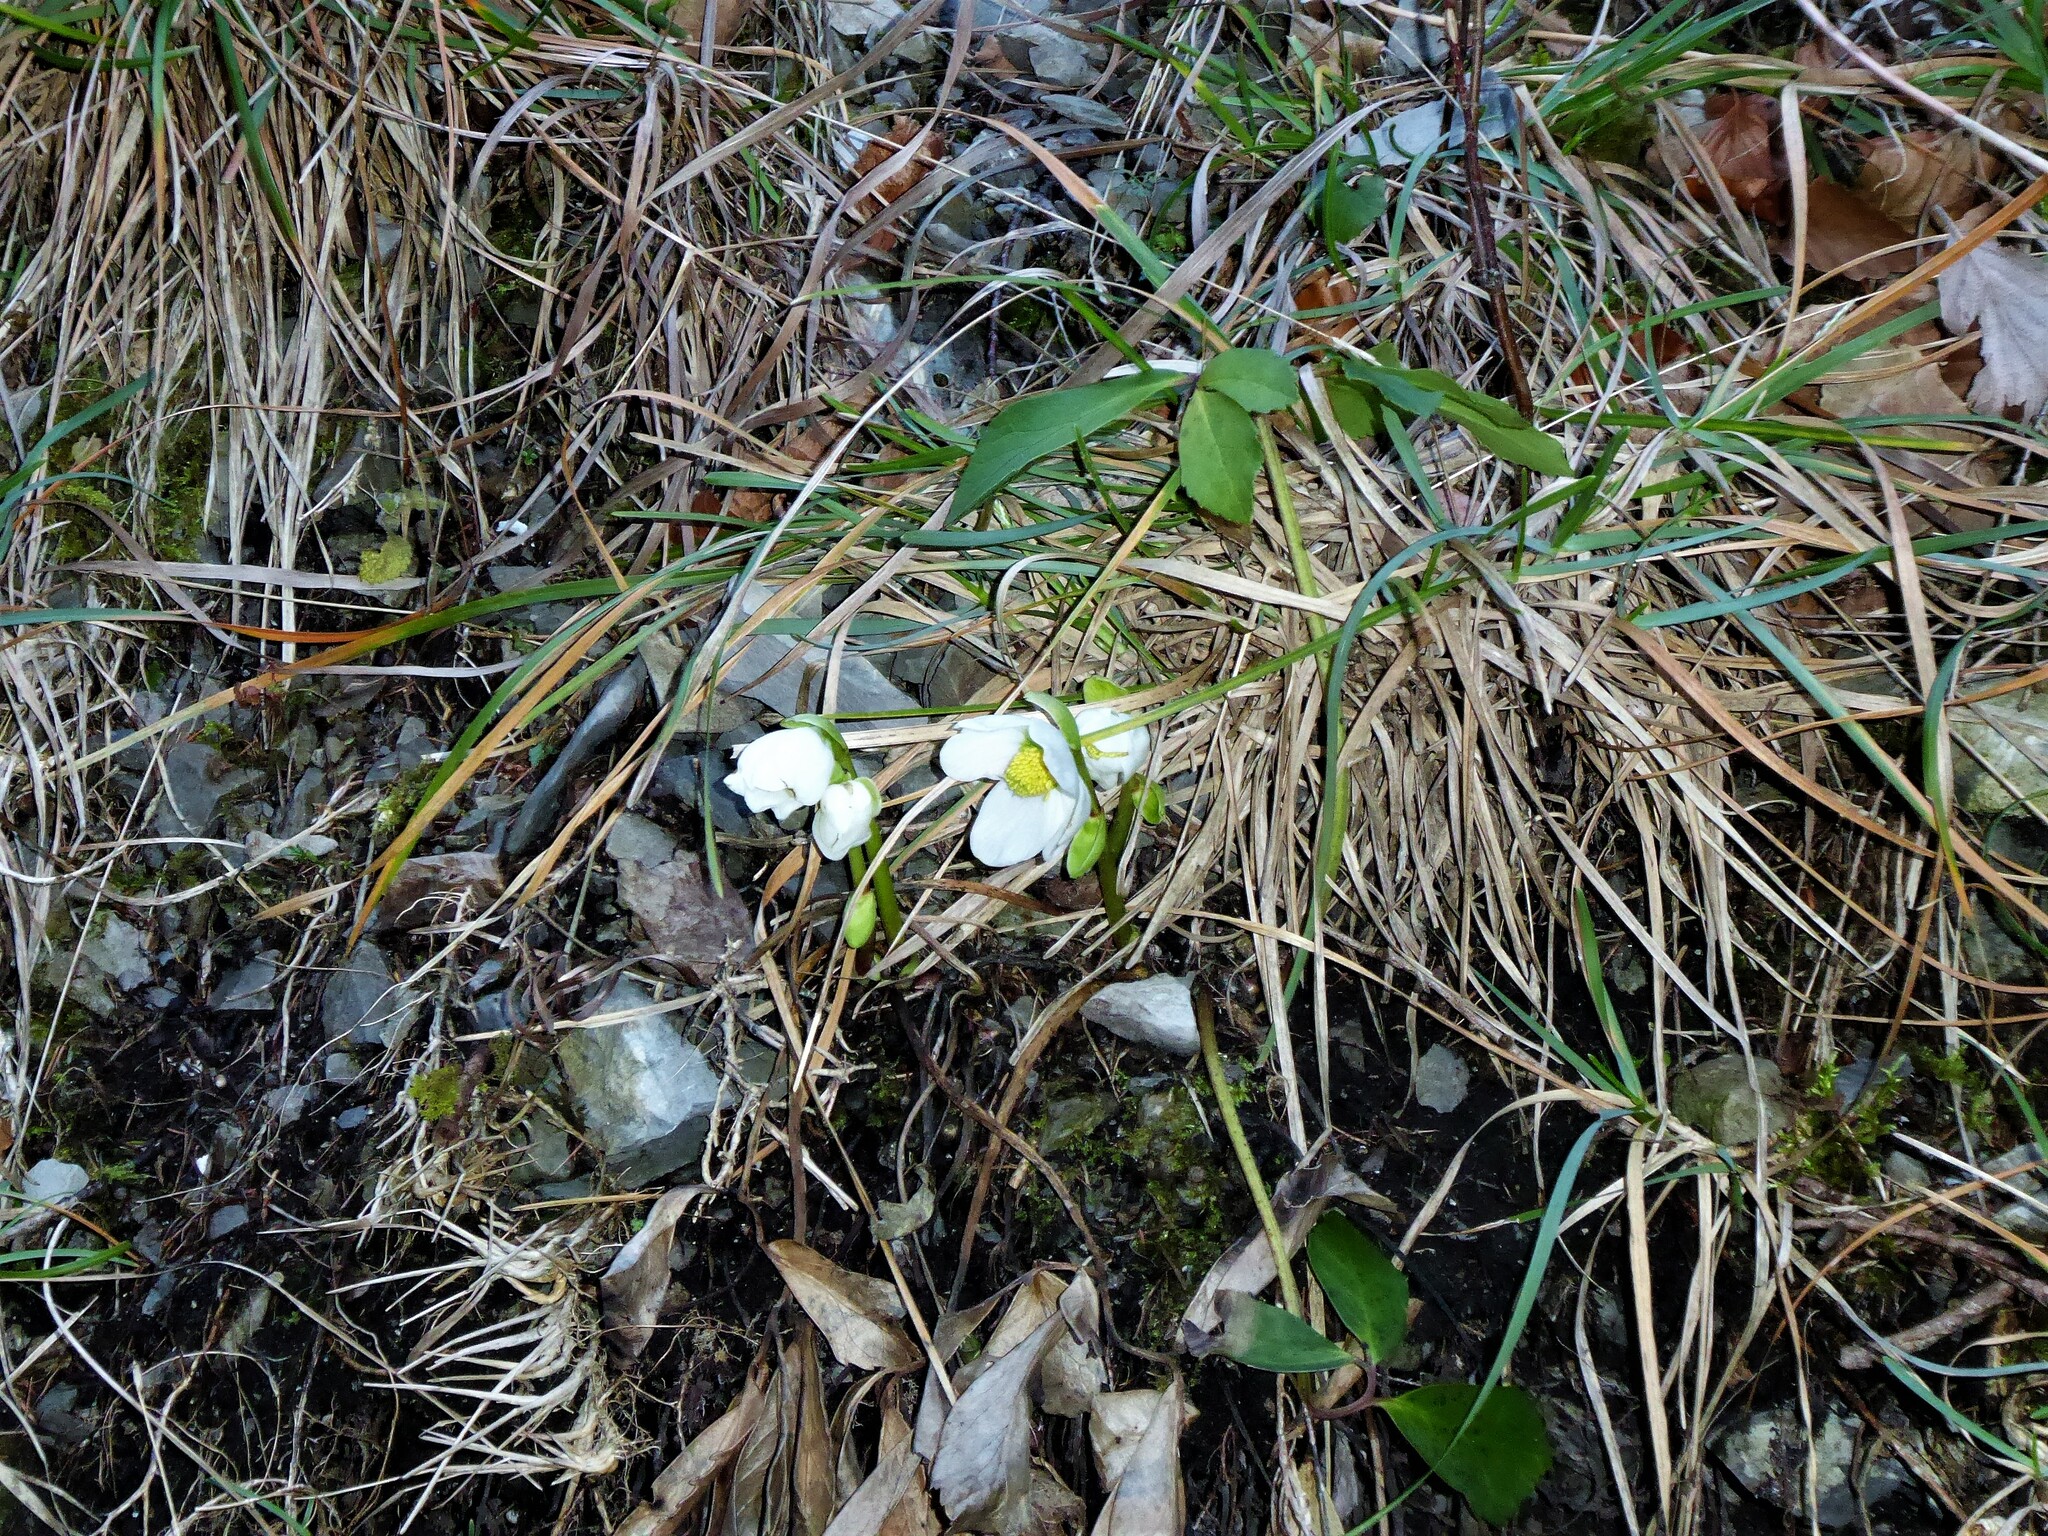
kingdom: Plantae
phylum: Tracheophyta
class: Magnoliopsida
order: Ranunculales
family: Ranunculaceae
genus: Helleborus
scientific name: Helleborus niger
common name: Black hellebore
